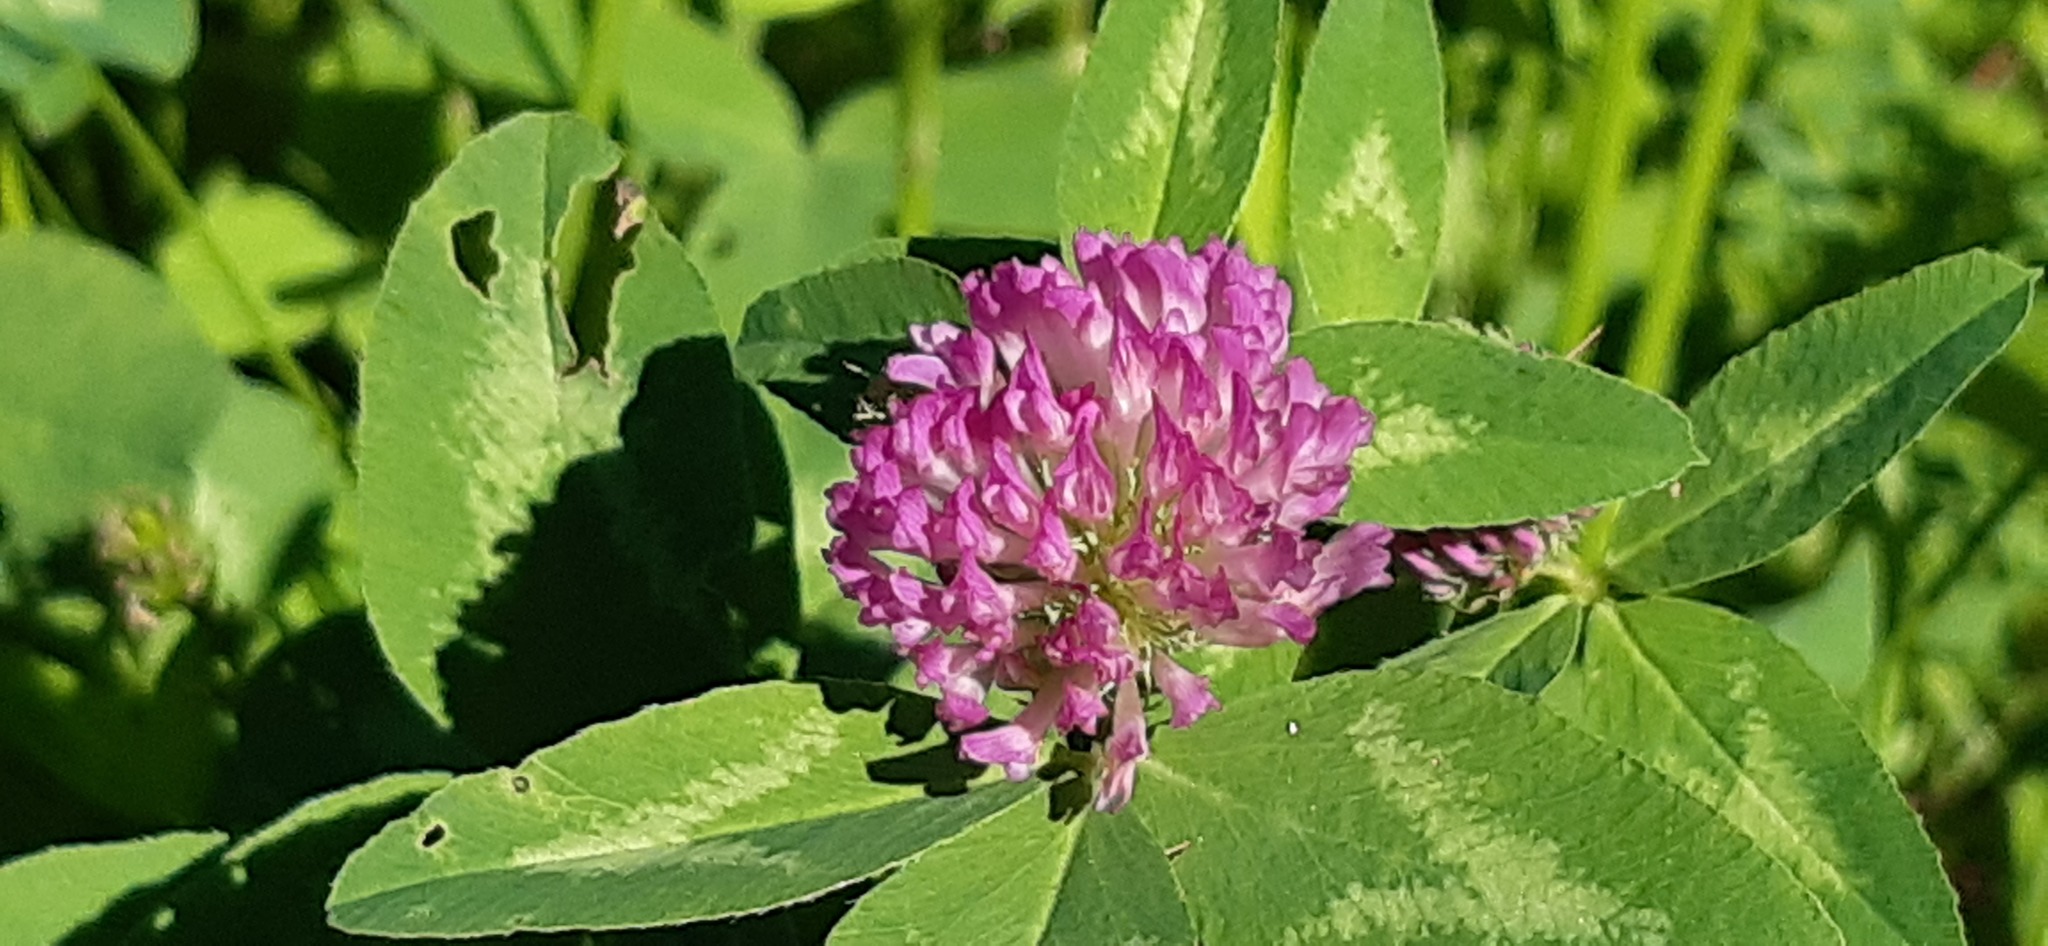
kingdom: Plantae
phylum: Tracheophyta
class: Magnoliopsida
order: Fabales
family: Fabaceae
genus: Trifolium
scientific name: Trifolium pratense
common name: Red clover
